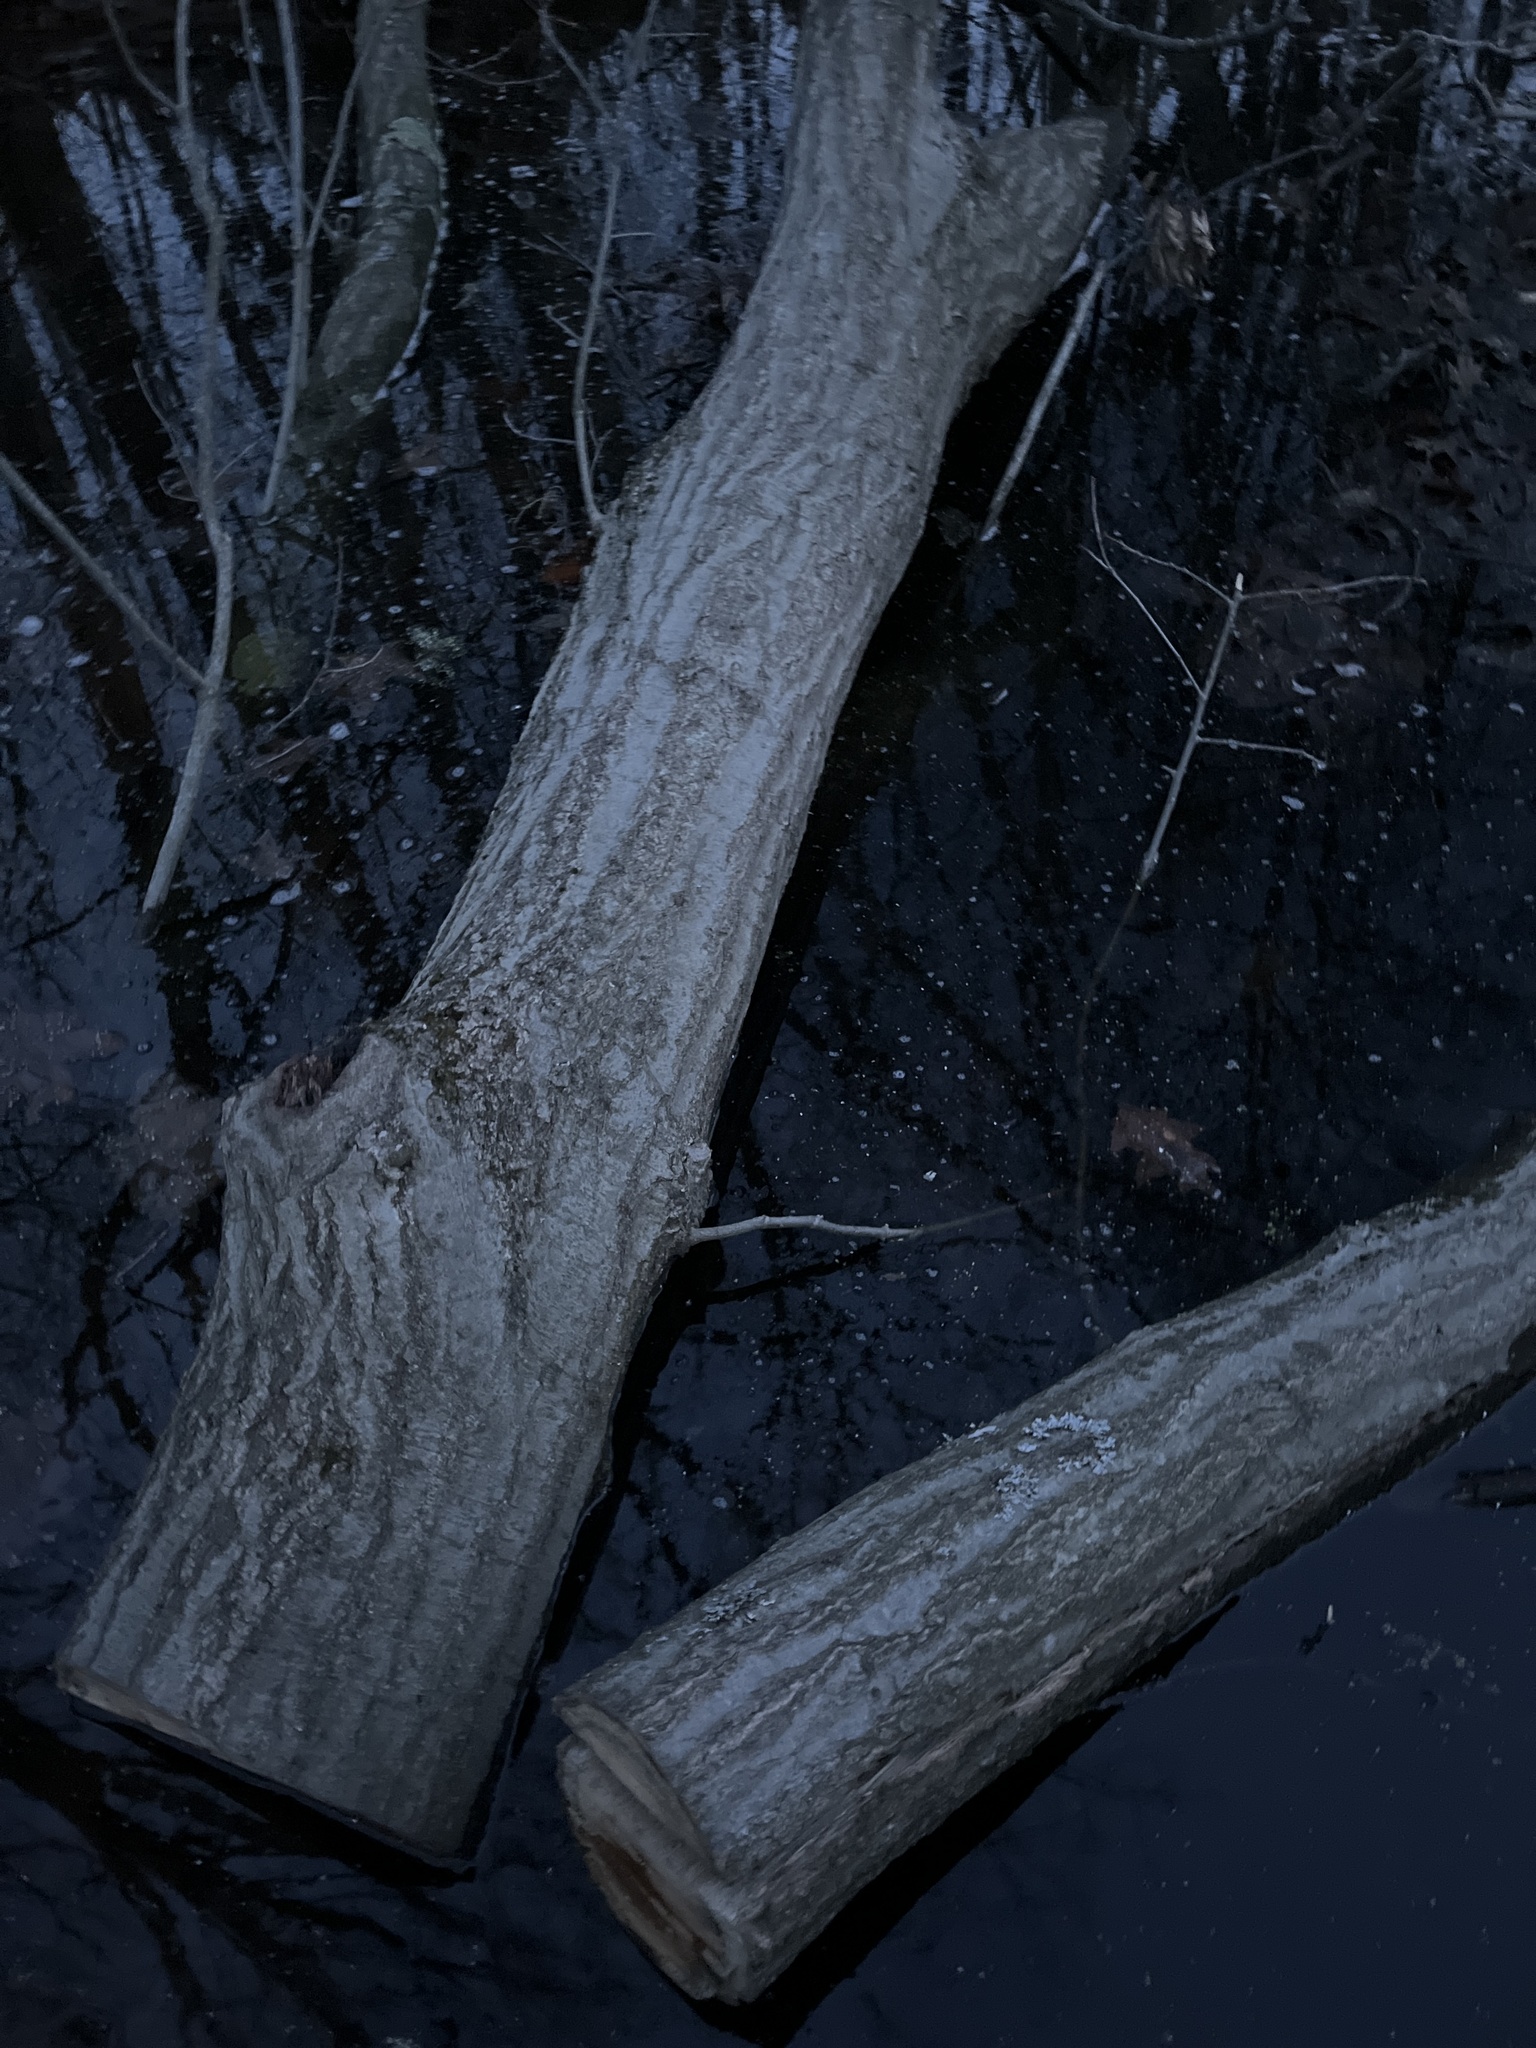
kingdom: Plantae
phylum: Tracheophyta
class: Magnoliopsida
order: Fagales
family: Fagaceae
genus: Quercus
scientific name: Quercus rubra
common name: Red oak
